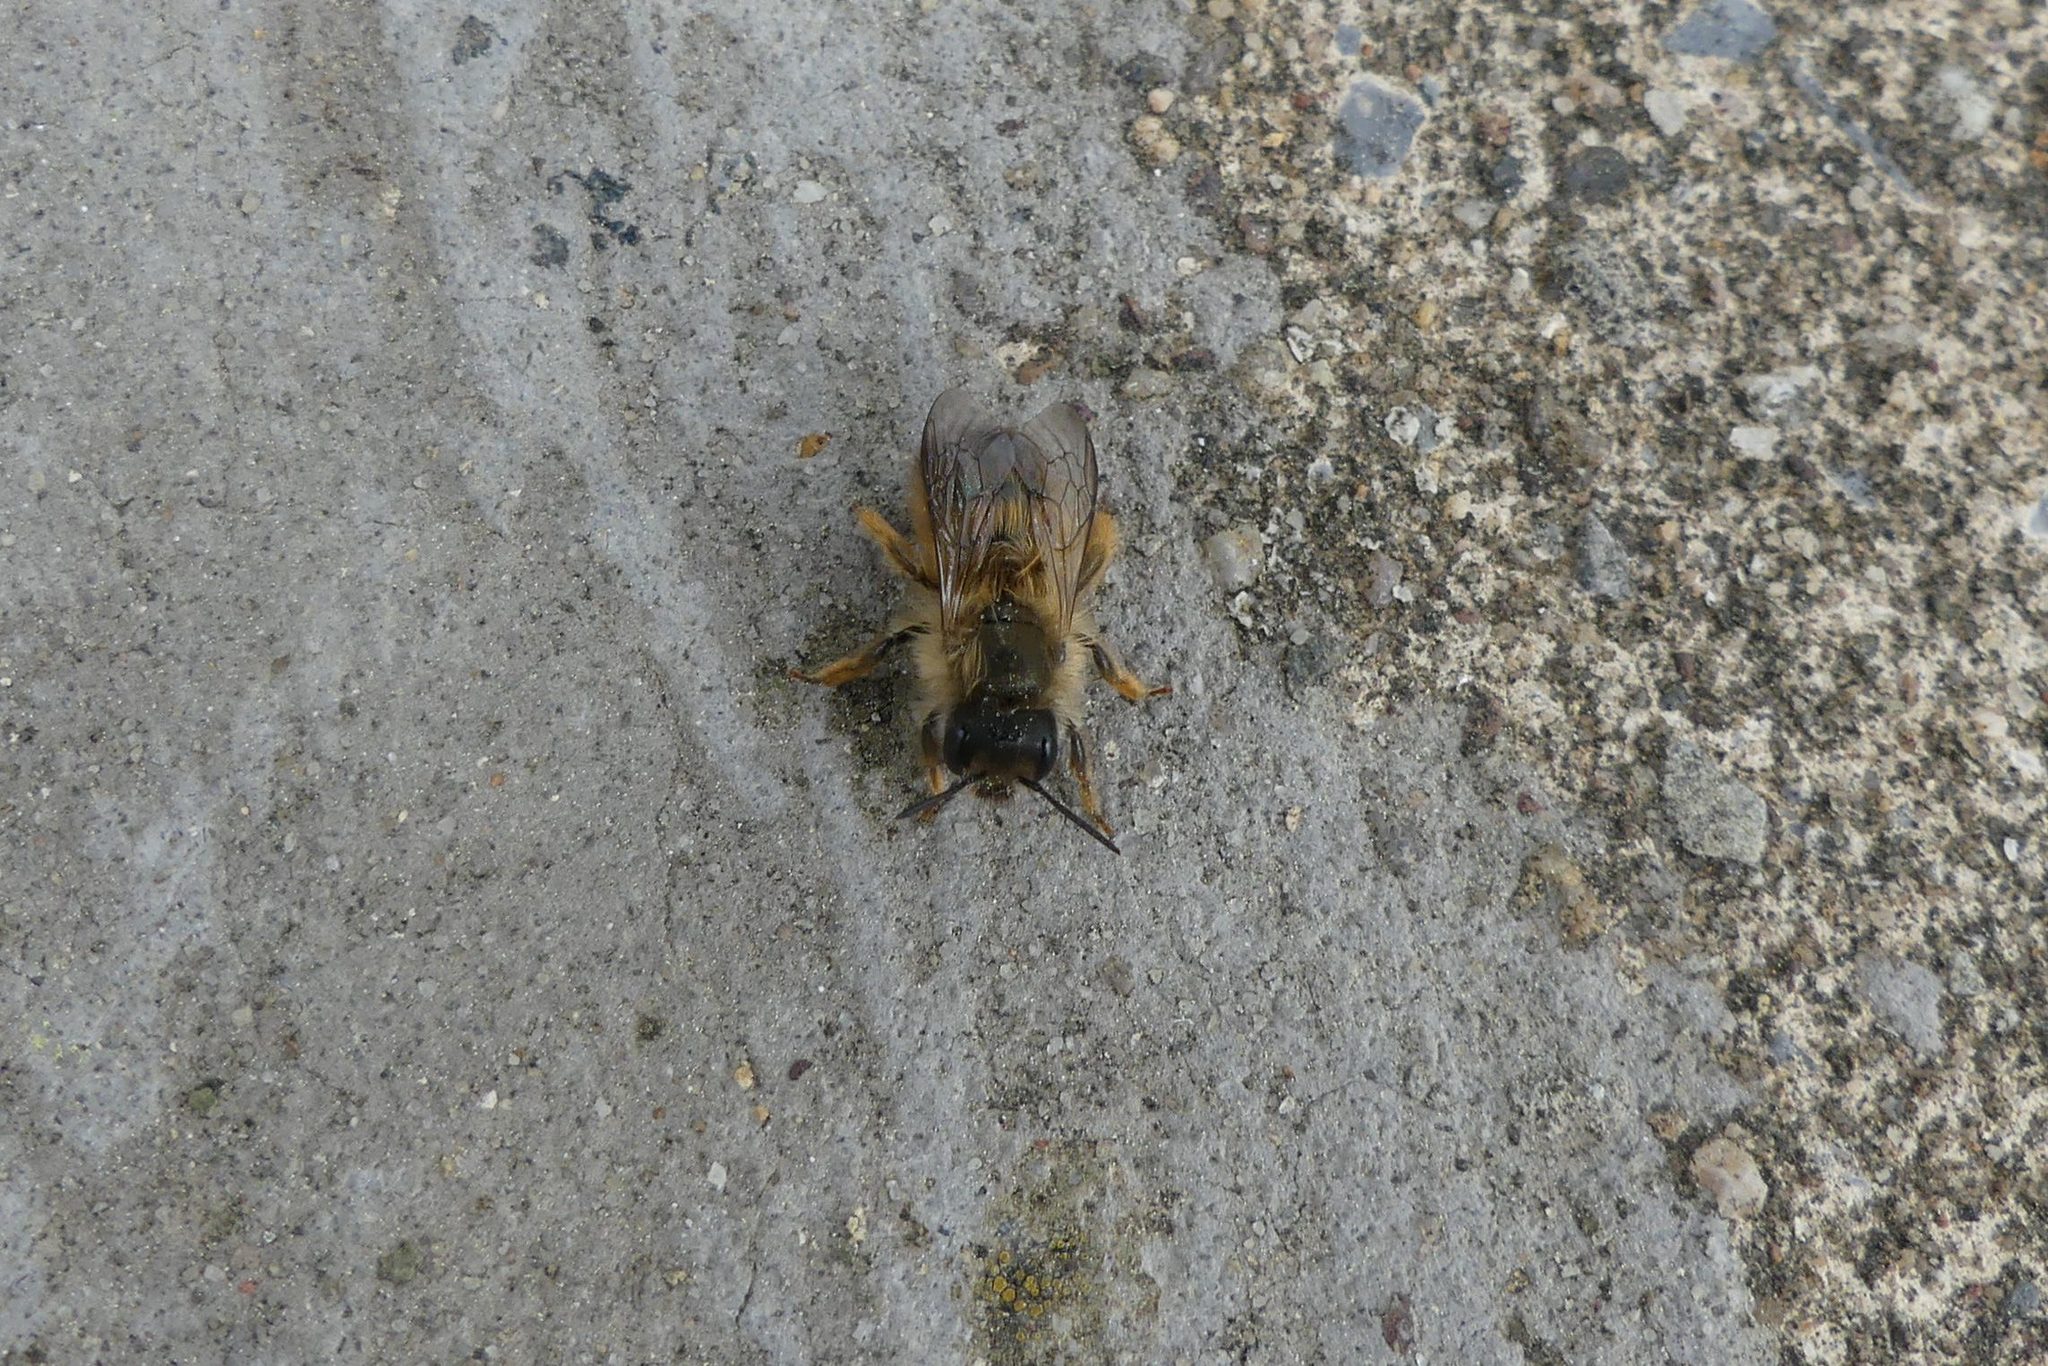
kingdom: Animalia
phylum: Arthropoda
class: Insecta
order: Hymenoptera
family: Megachilidae
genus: Osmia
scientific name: Osmia taurus
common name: Taurus mason bee
